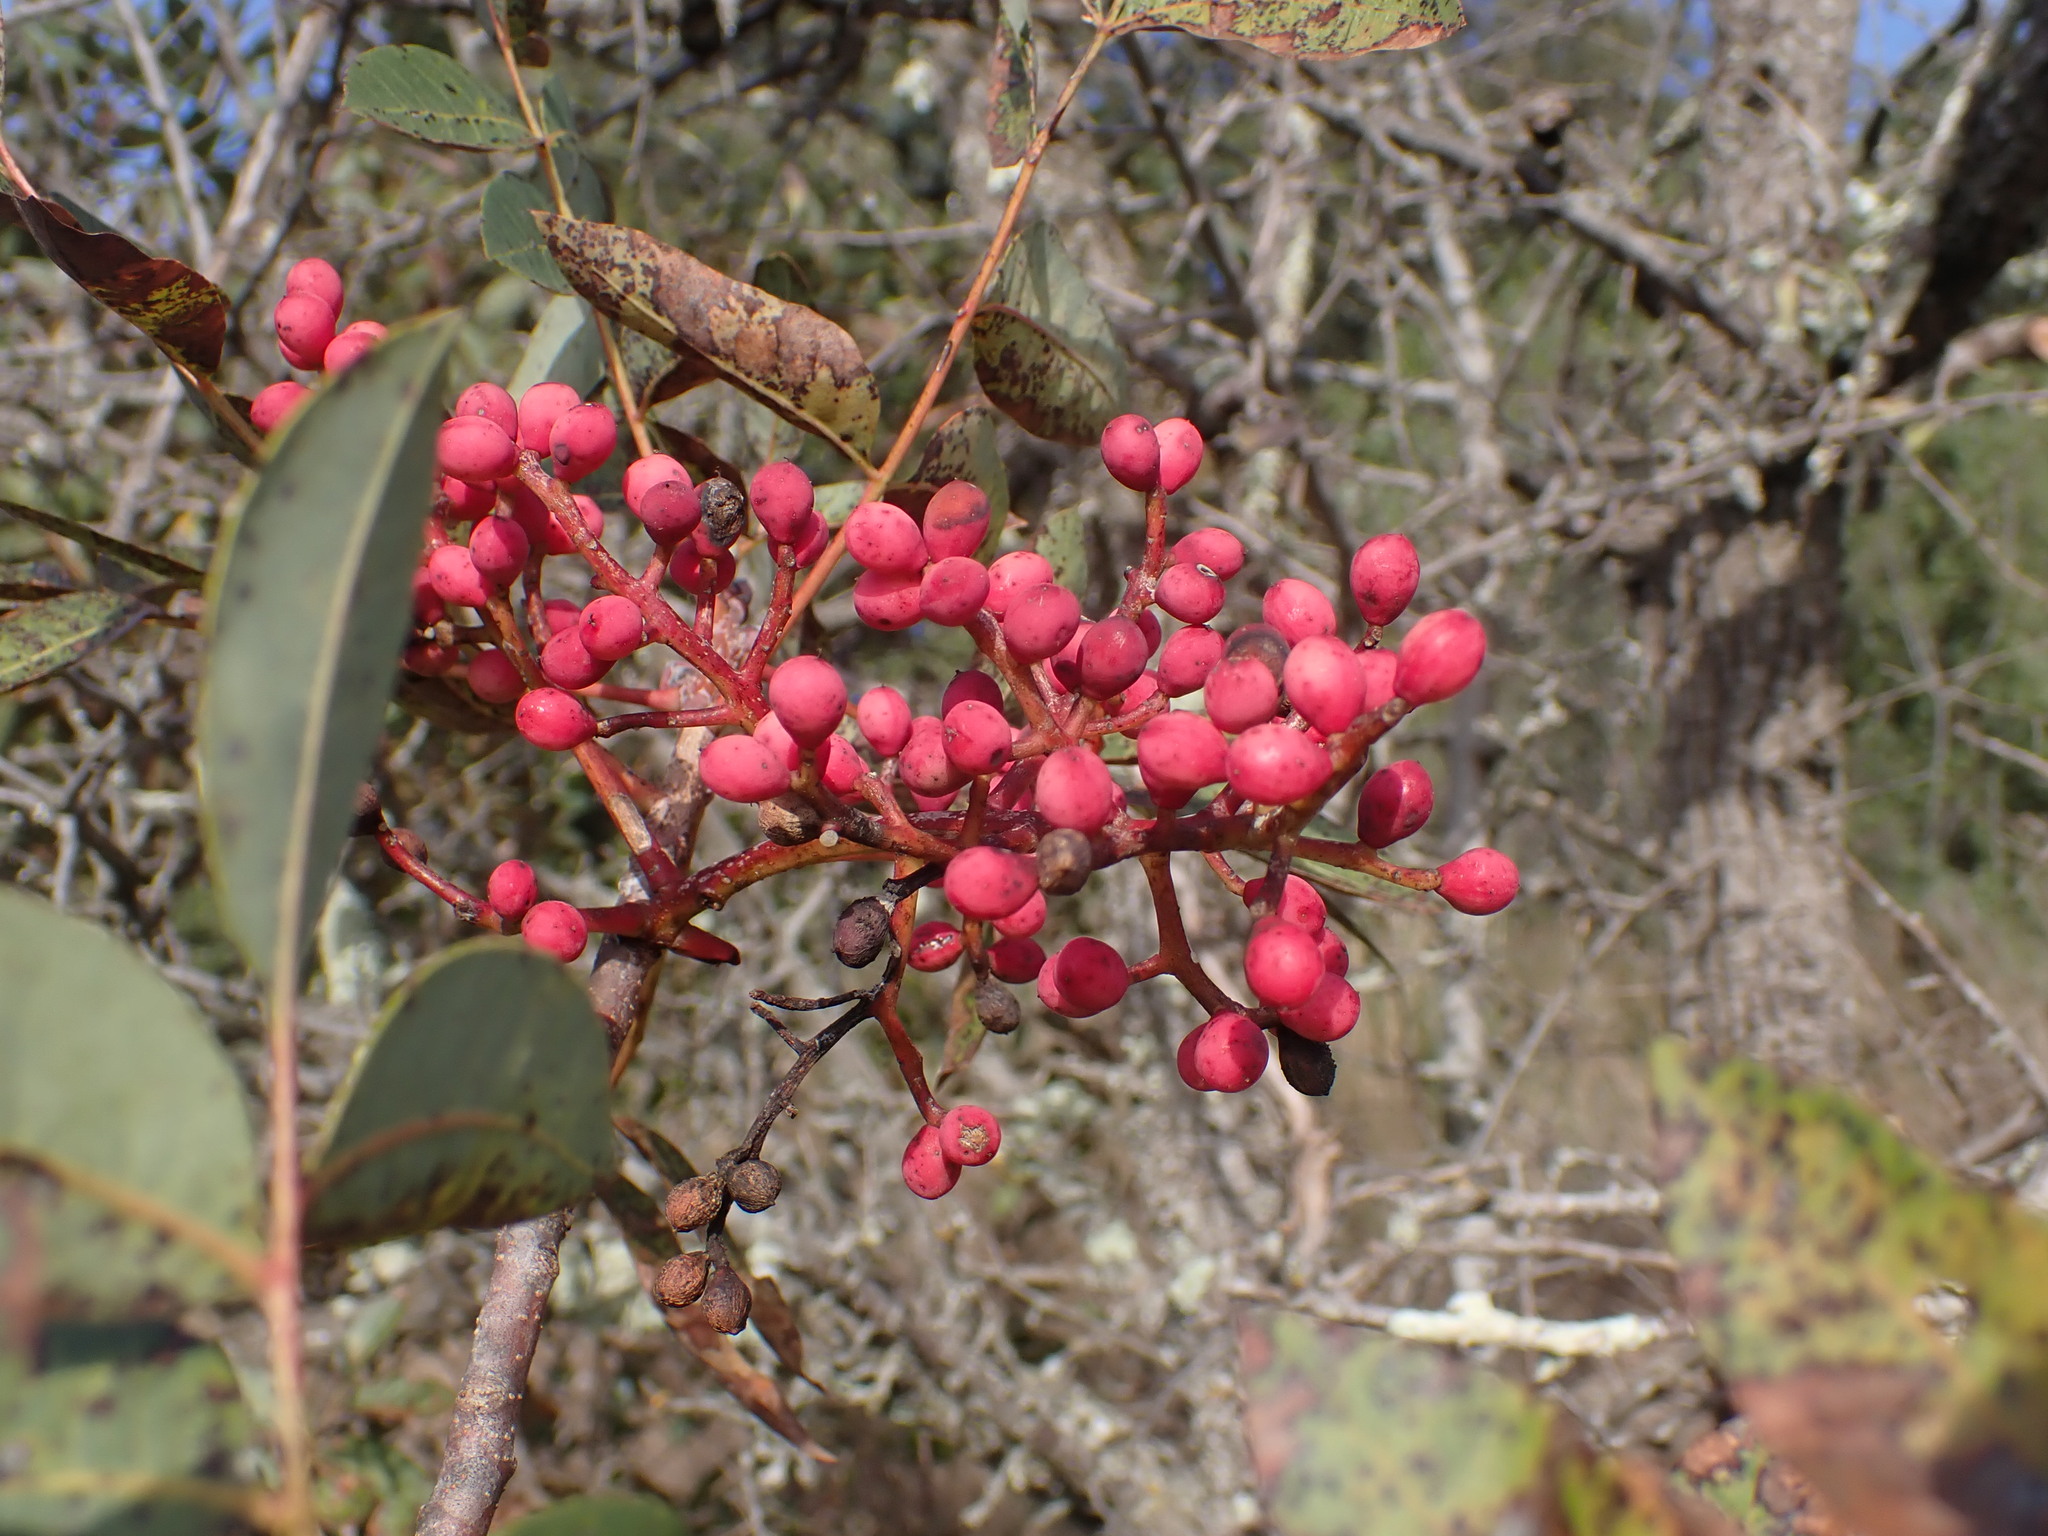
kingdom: Plantae
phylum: Tracheophyta
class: Magnoliopsida
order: Sapindales
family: Anacardiaceae
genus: Pistacia
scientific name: Pistacia terebinthus
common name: Terebinth
